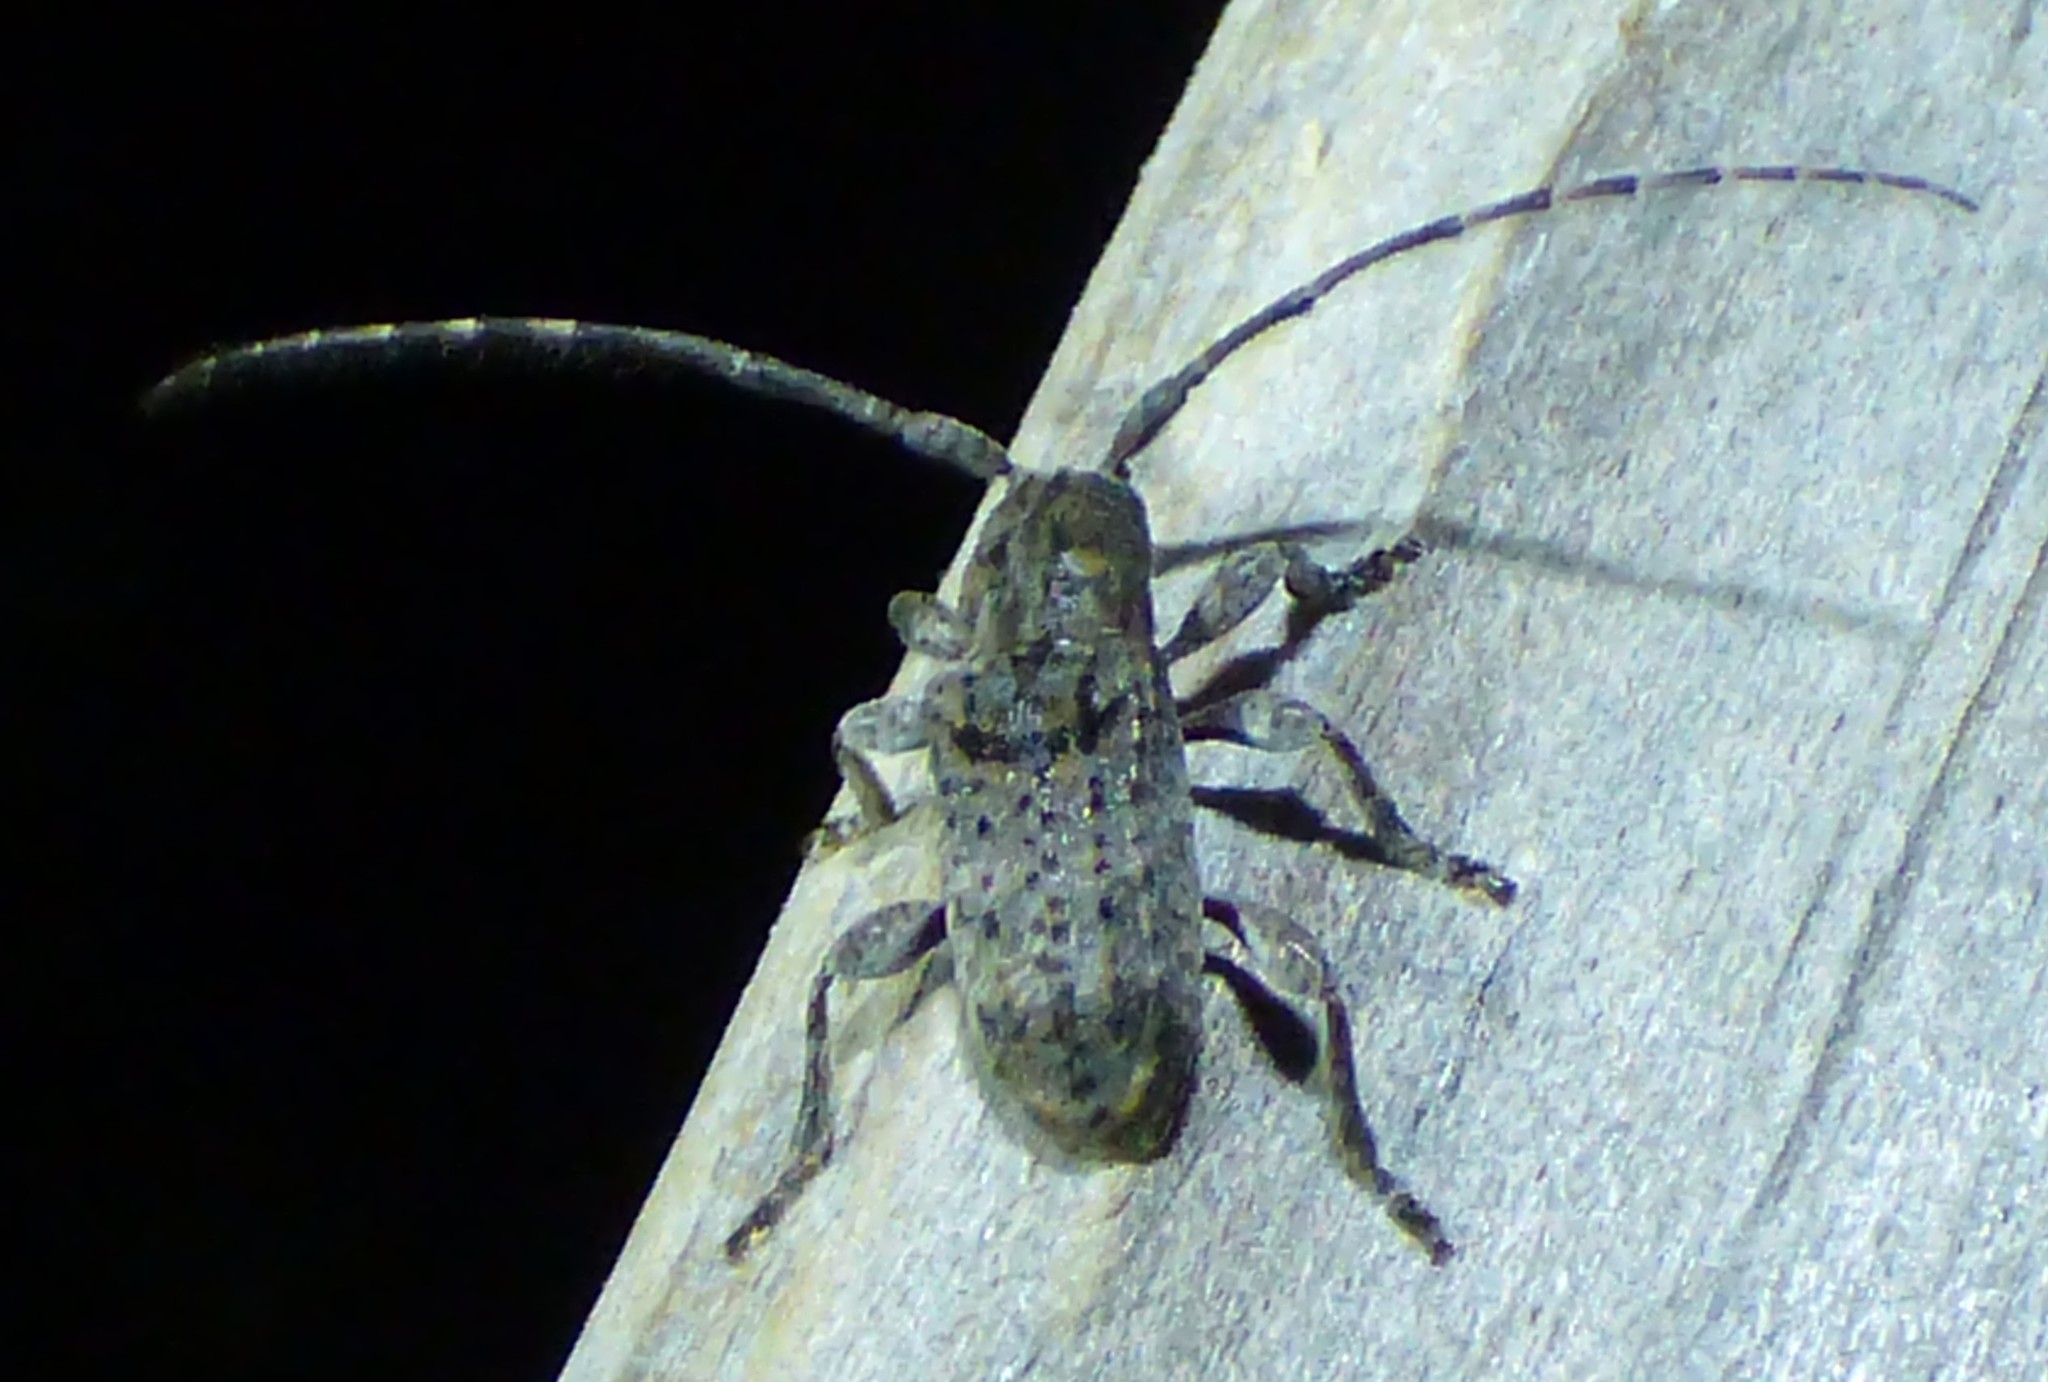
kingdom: Animalia
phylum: Arthropoda
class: Insecta
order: Coleoptera
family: Cerambycidae
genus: Ecyrus
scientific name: Ecyrus dasycerus
